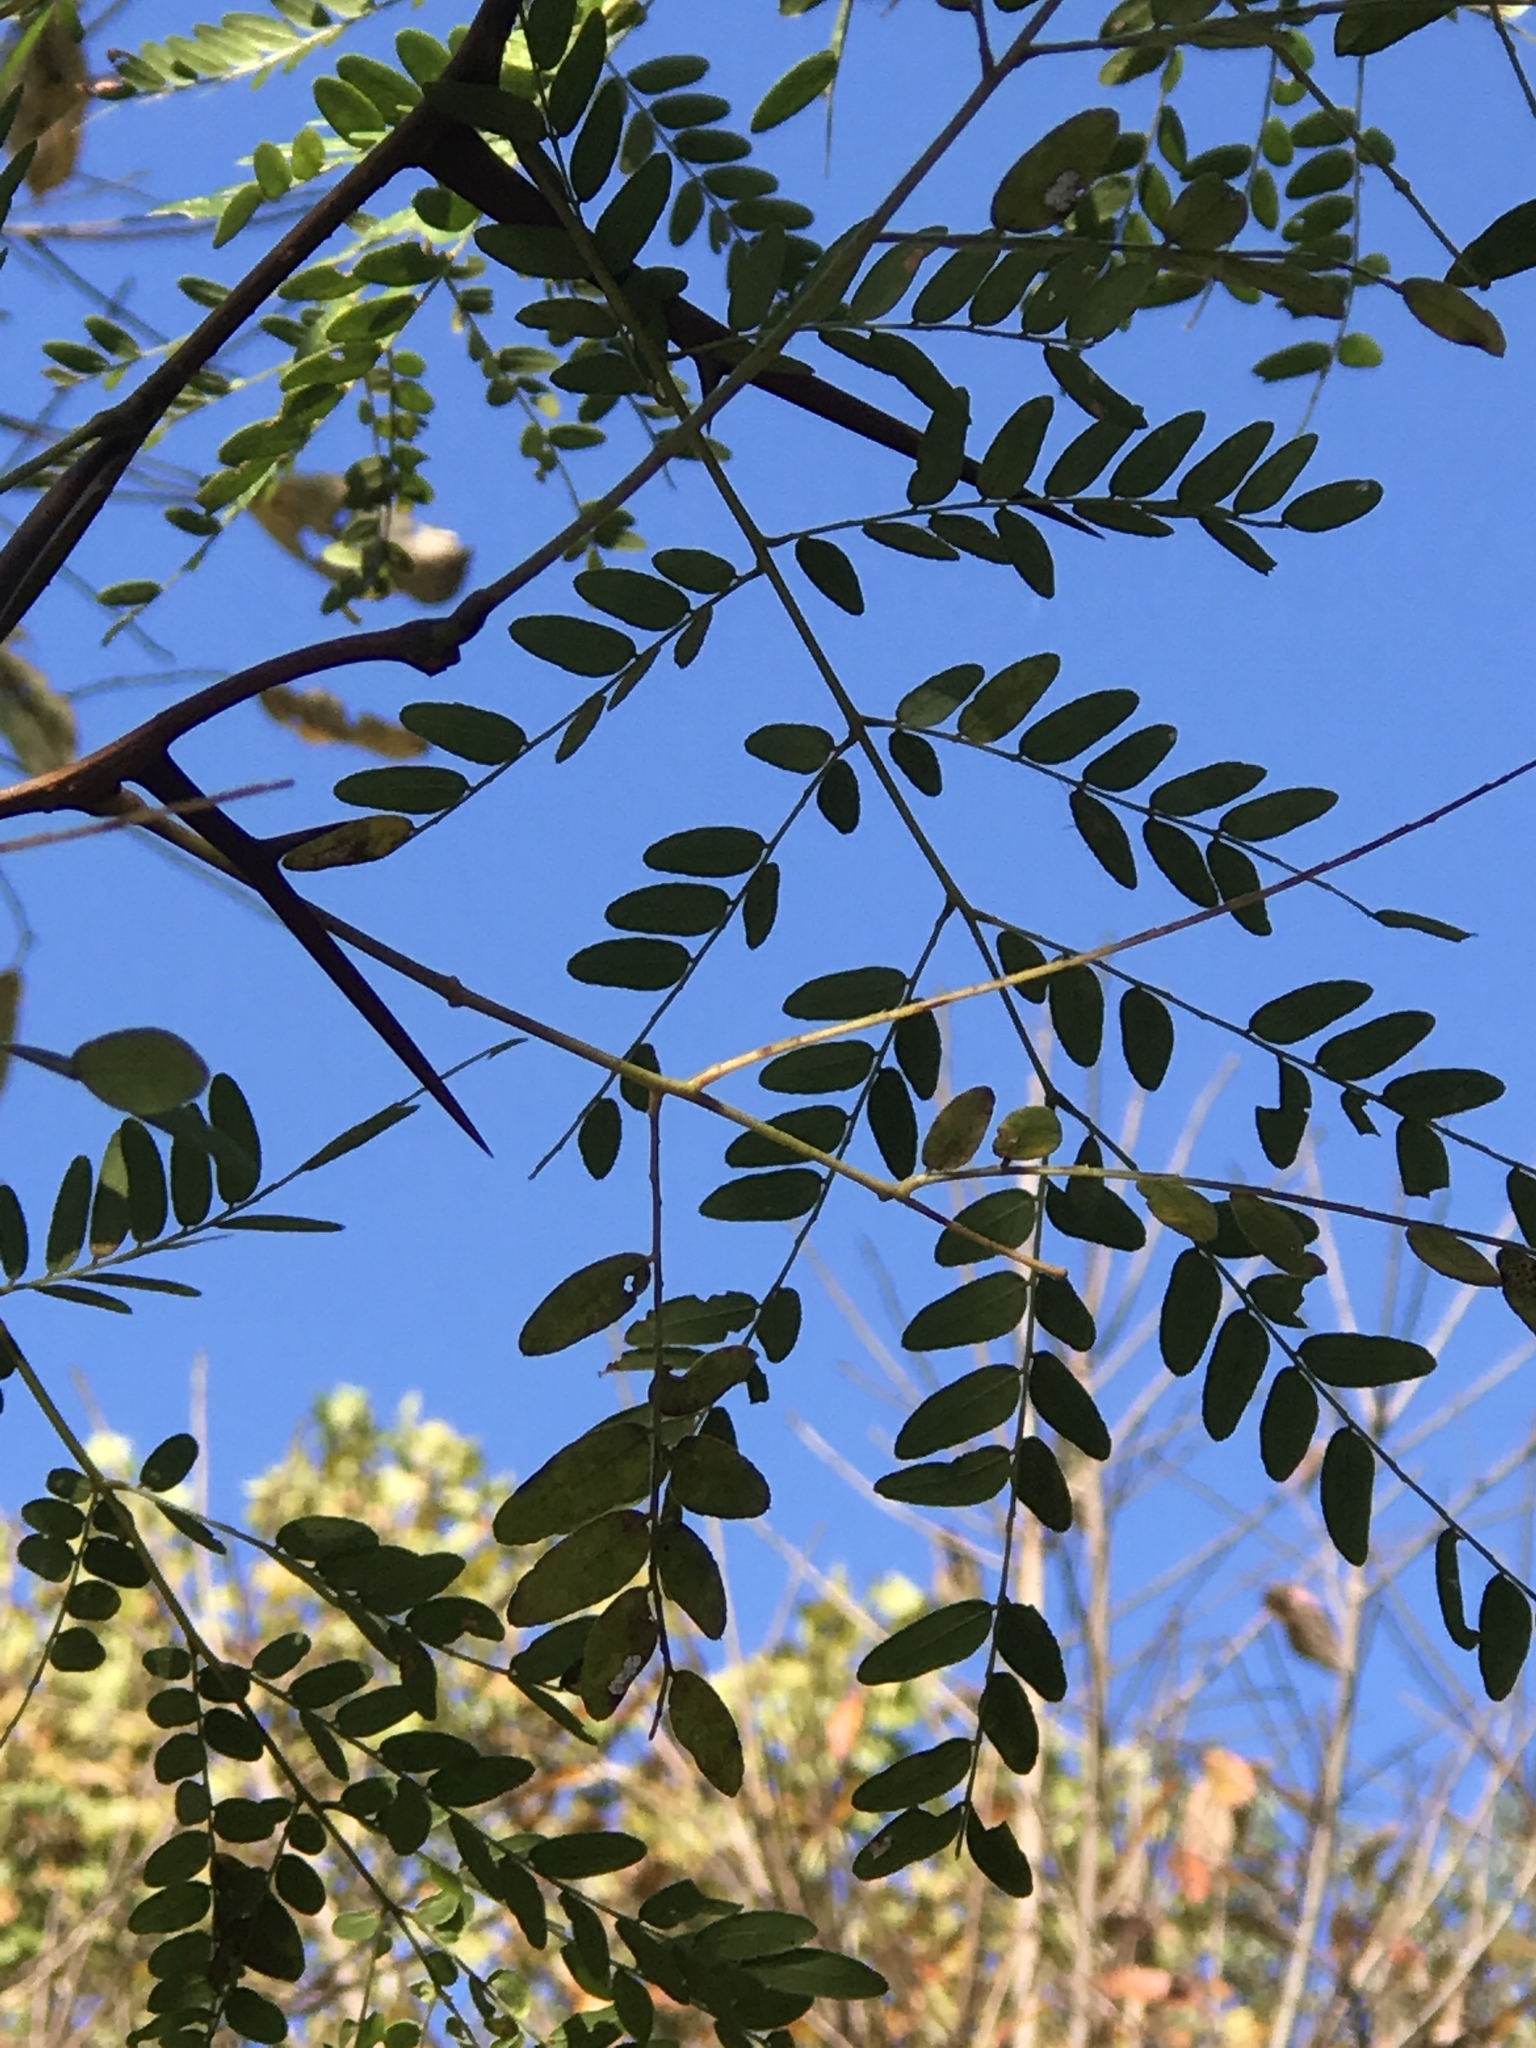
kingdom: Plantae
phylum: Tracheophyta
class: Magnoliopsida
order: Fabales
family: Fabaceae
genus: Gleditsia
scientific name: Gleditsia triacanthos
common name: Common honeylocust
